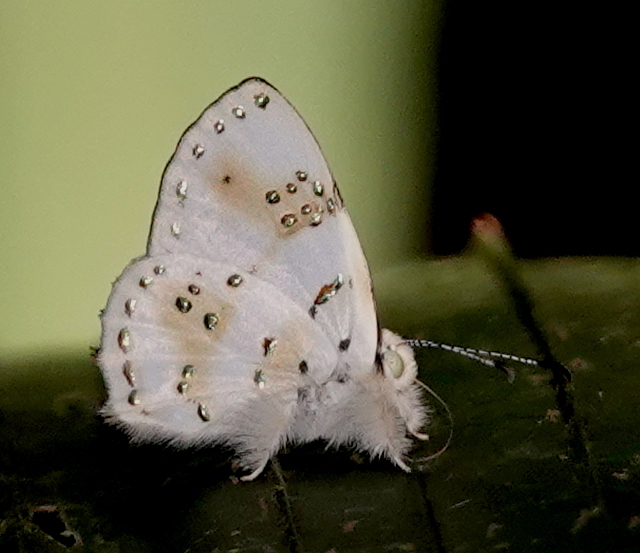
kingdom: Animalia
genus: Anteros
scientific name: Anteros chrysoprastus
